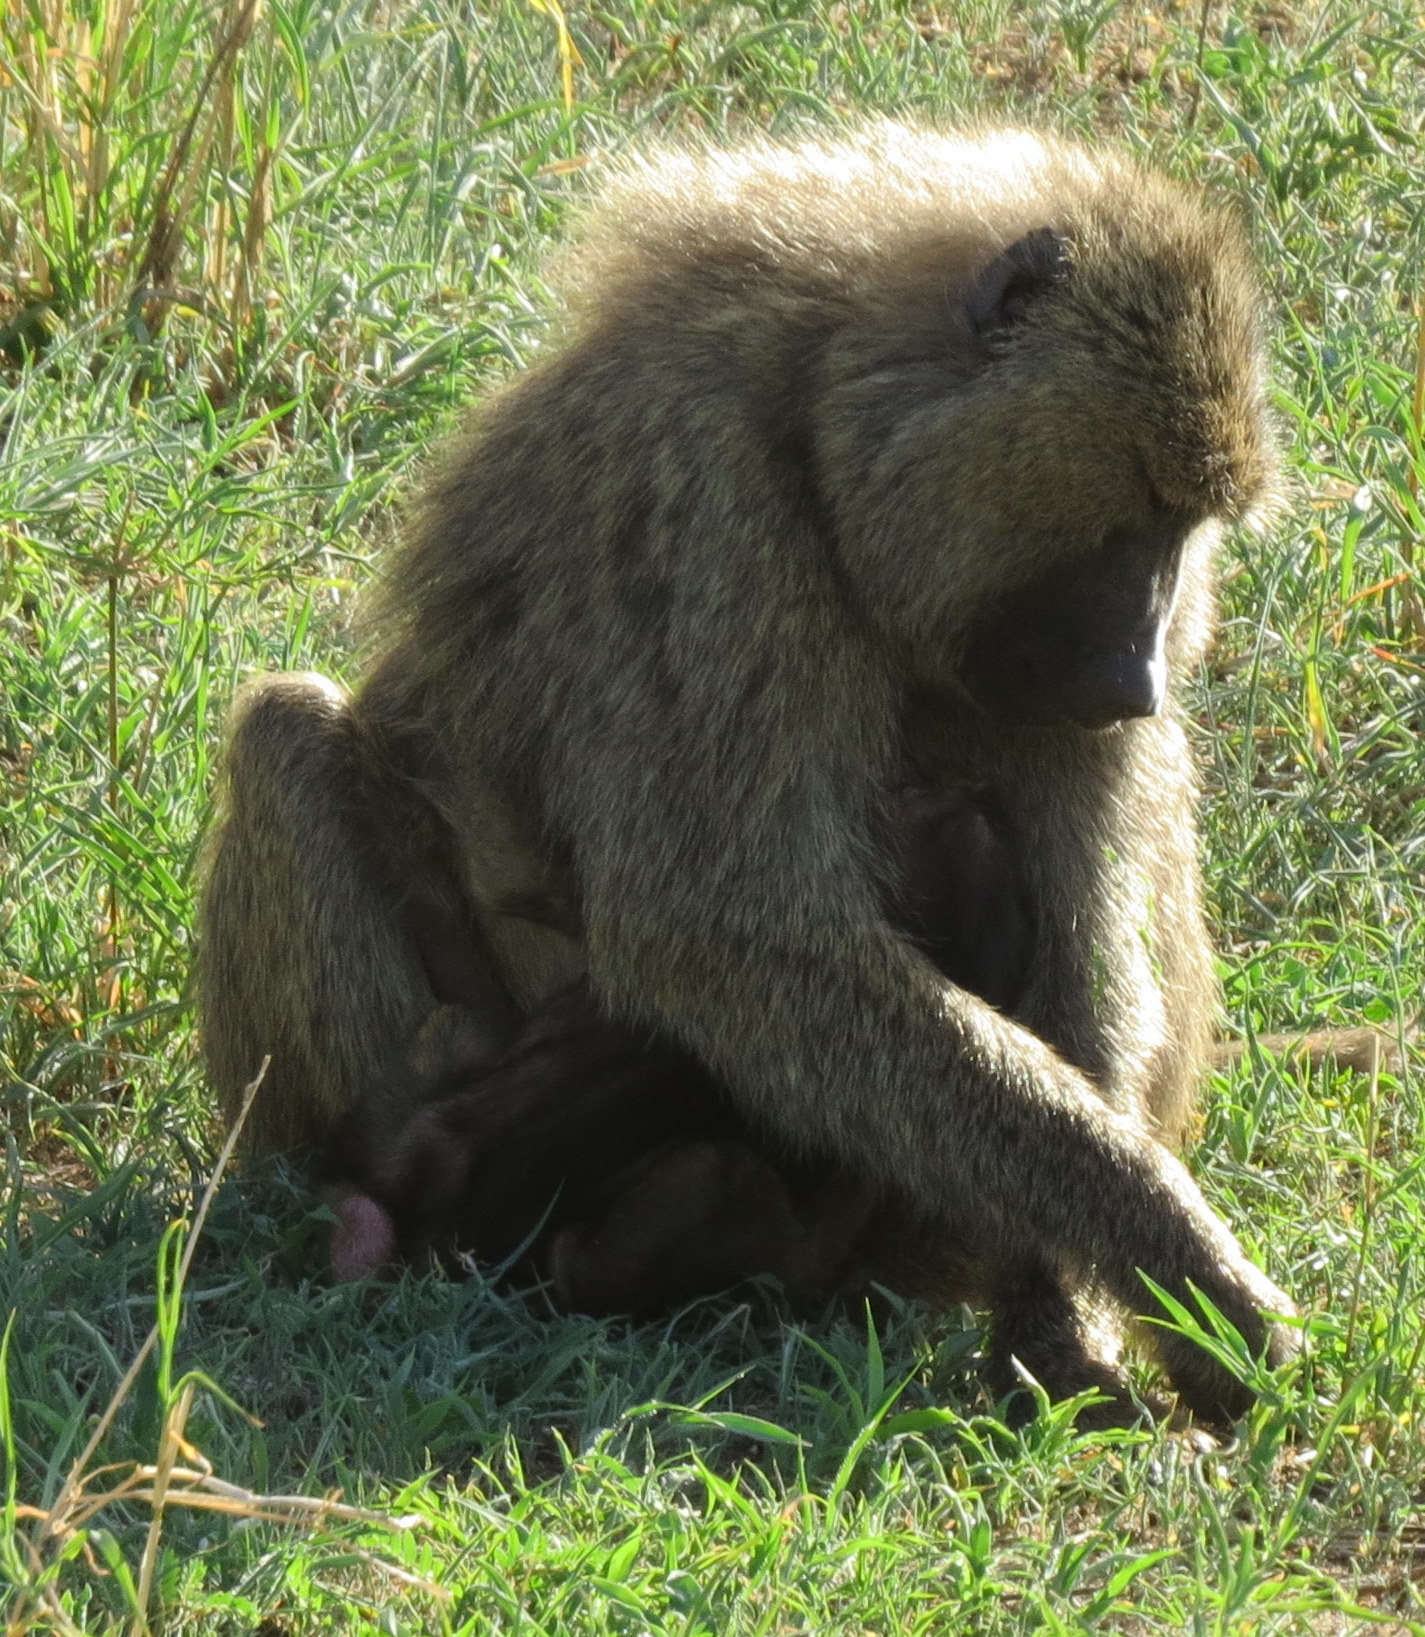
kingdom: Animalia
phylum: Chordata
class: Mammalia
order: Primates
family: Cercopithecidae
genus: Papio
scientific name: Papio anubis
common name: Olive baboon
